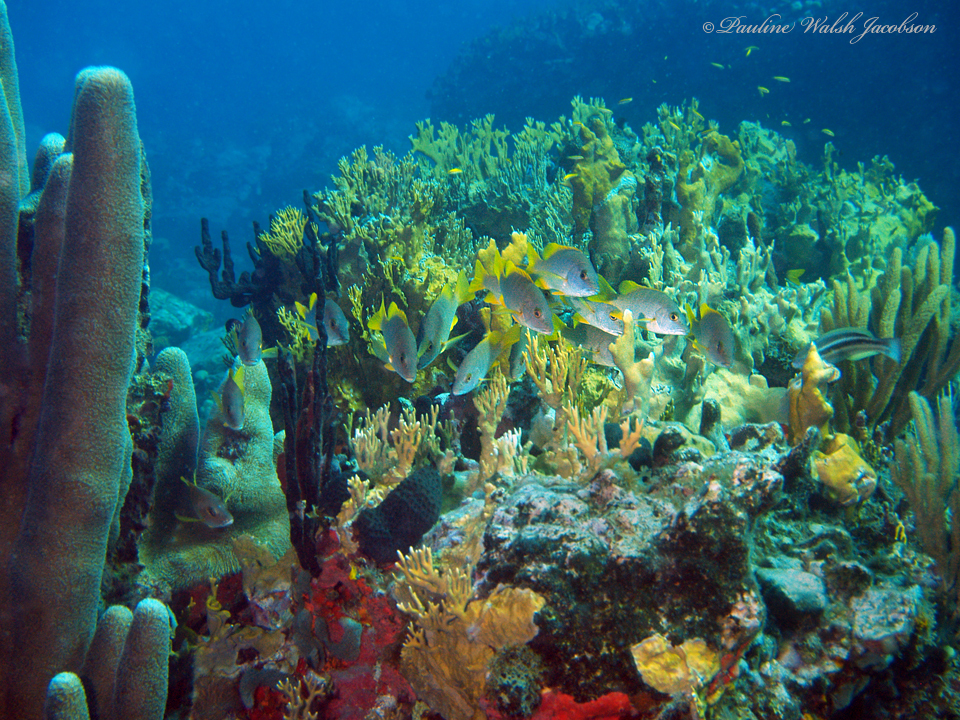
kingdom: Animalia
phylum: Chordata
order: Perciformes
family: Lutjanidae
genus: Lutjanus
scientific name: Lutjanus apodus
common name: Schoolmaster
